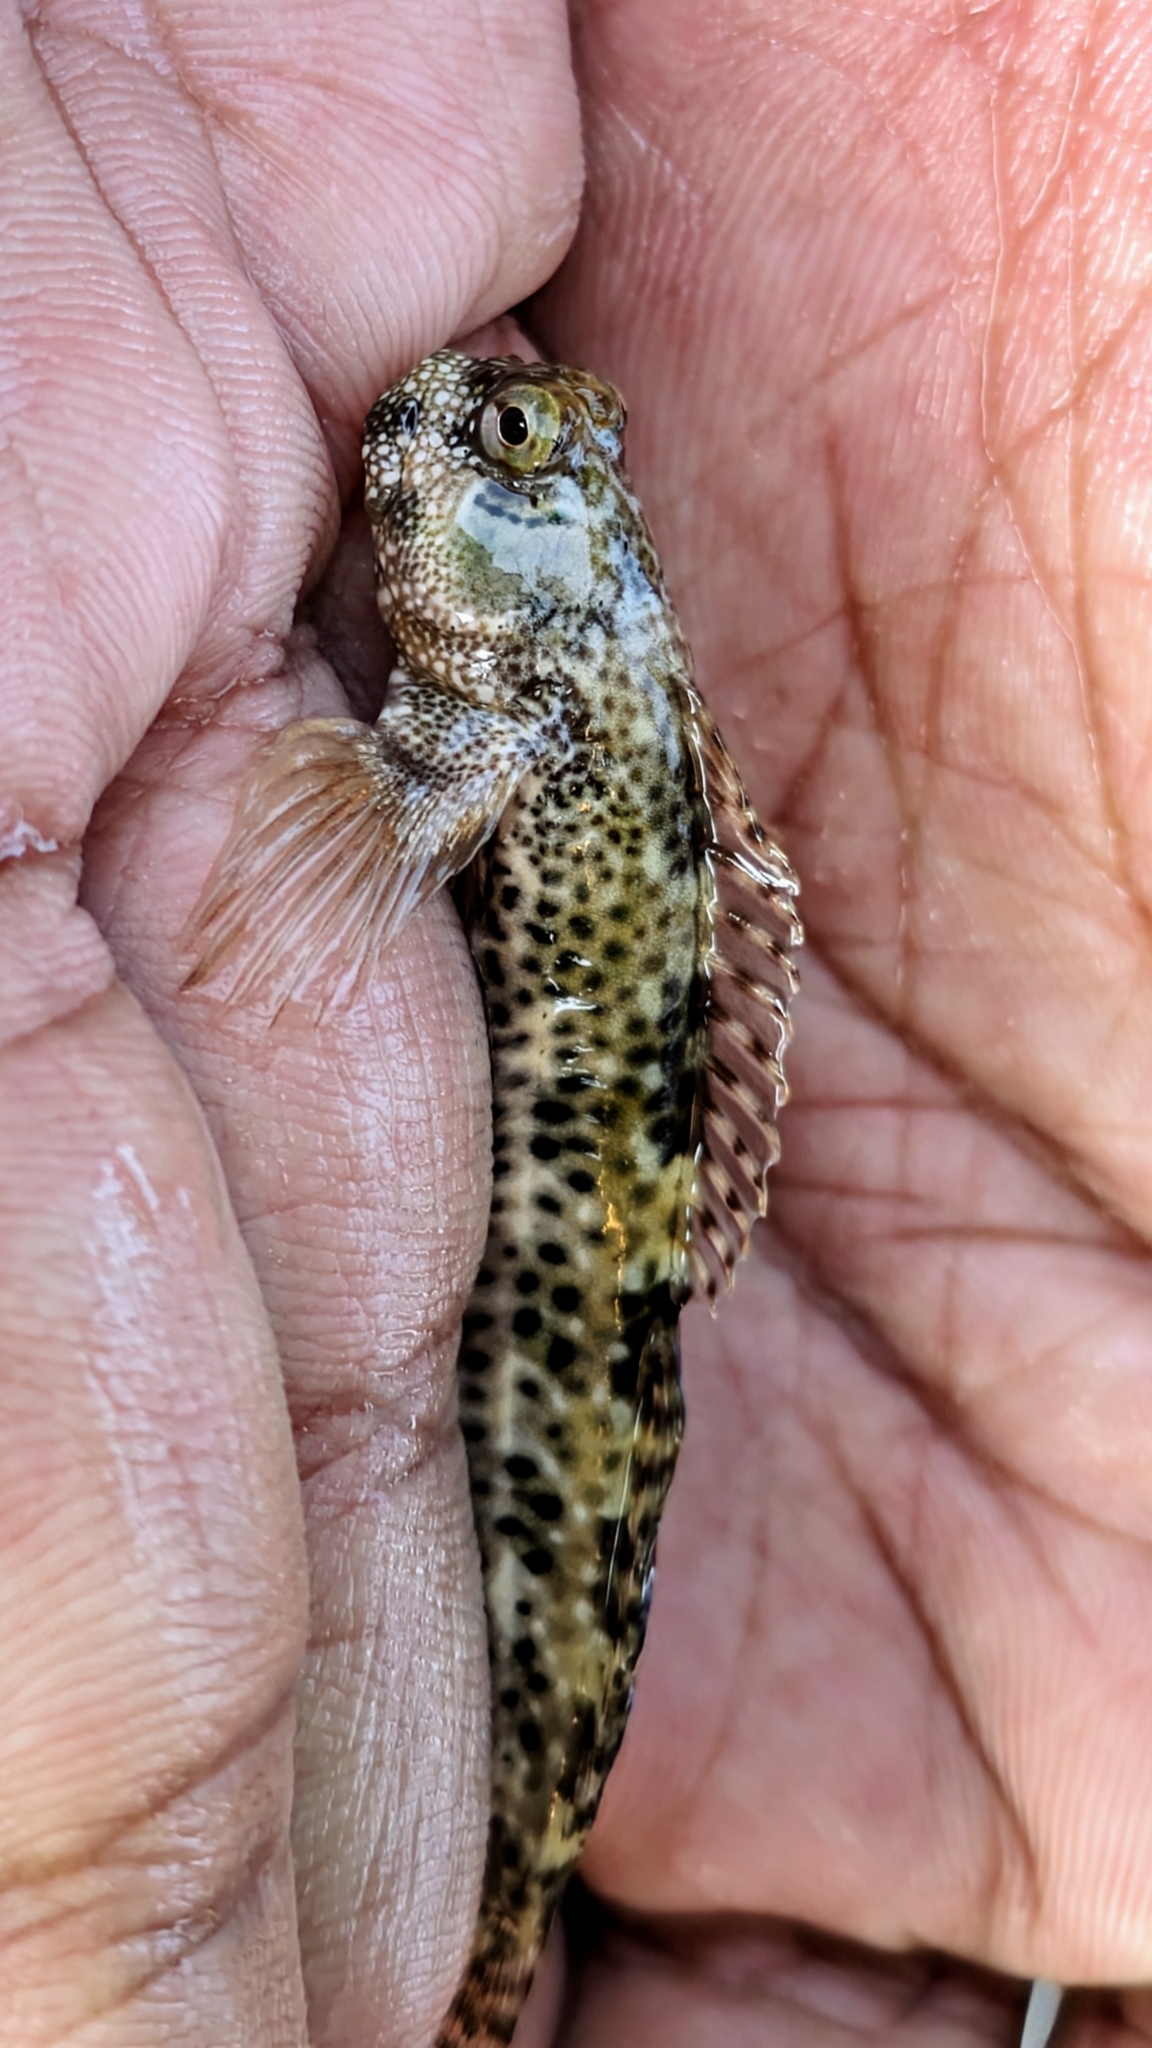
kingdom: Animalia
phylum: Chordata
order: Perciformes
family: Blenniidae
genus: Entomacrodus
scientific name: Entomacrodus striatus
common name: Pearly rockskipper
